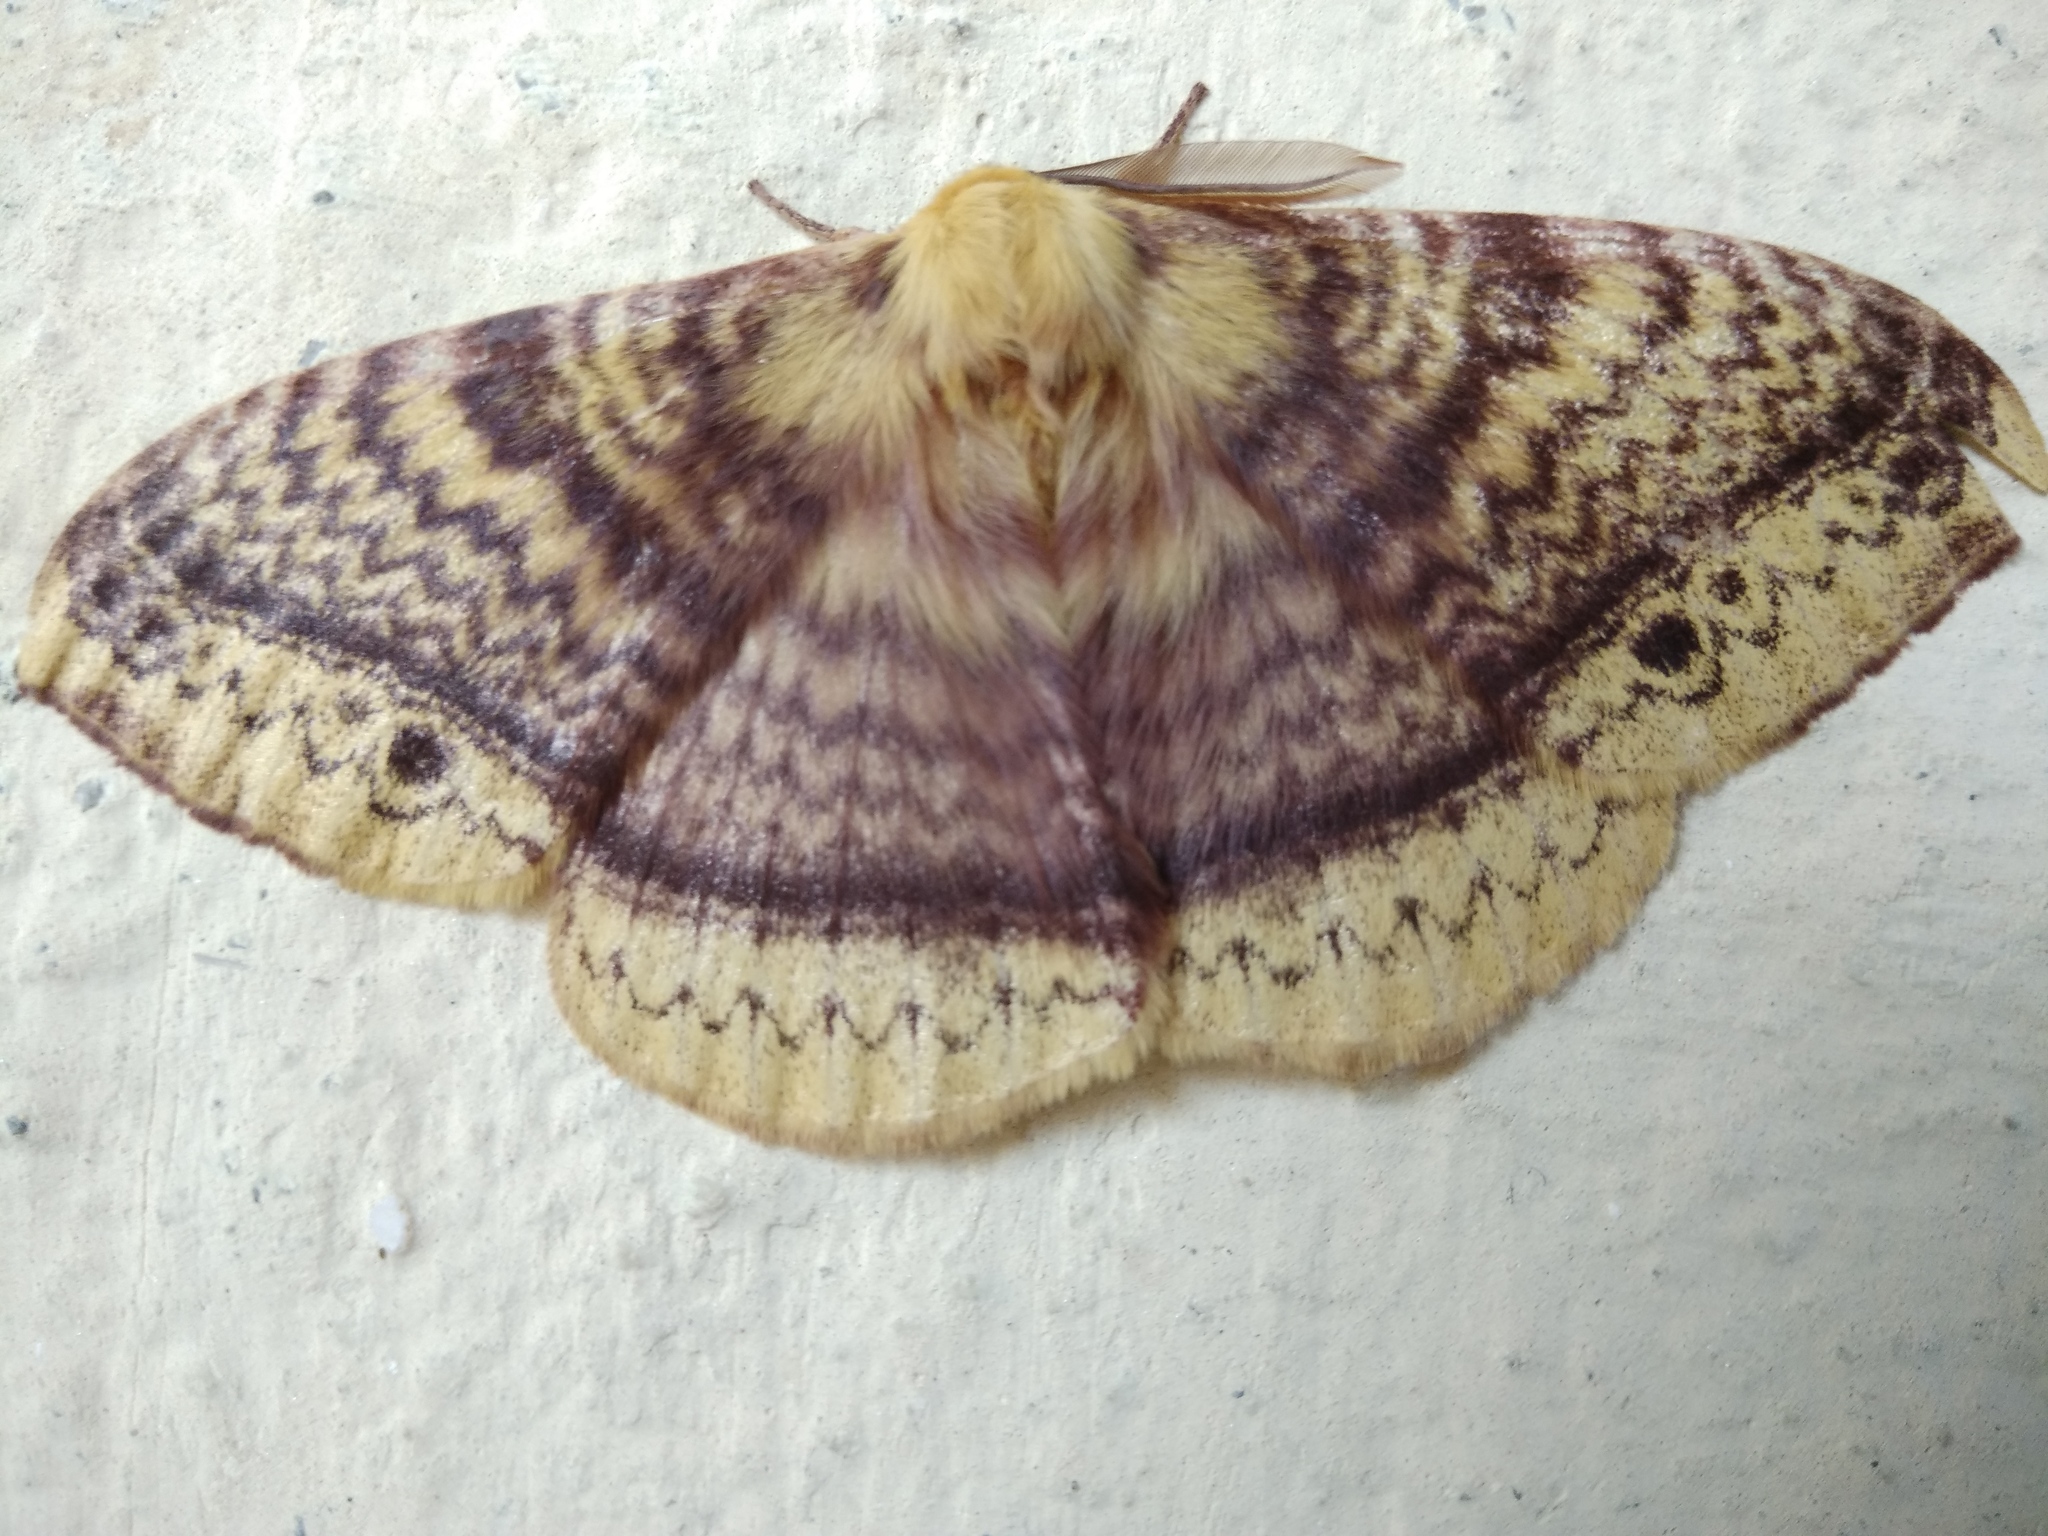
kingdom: Animalia
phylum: Arthropoda
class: Insecta
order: Lepidoptera
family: Eupterotidae
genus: Eupterote
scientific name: Eupterote undata
